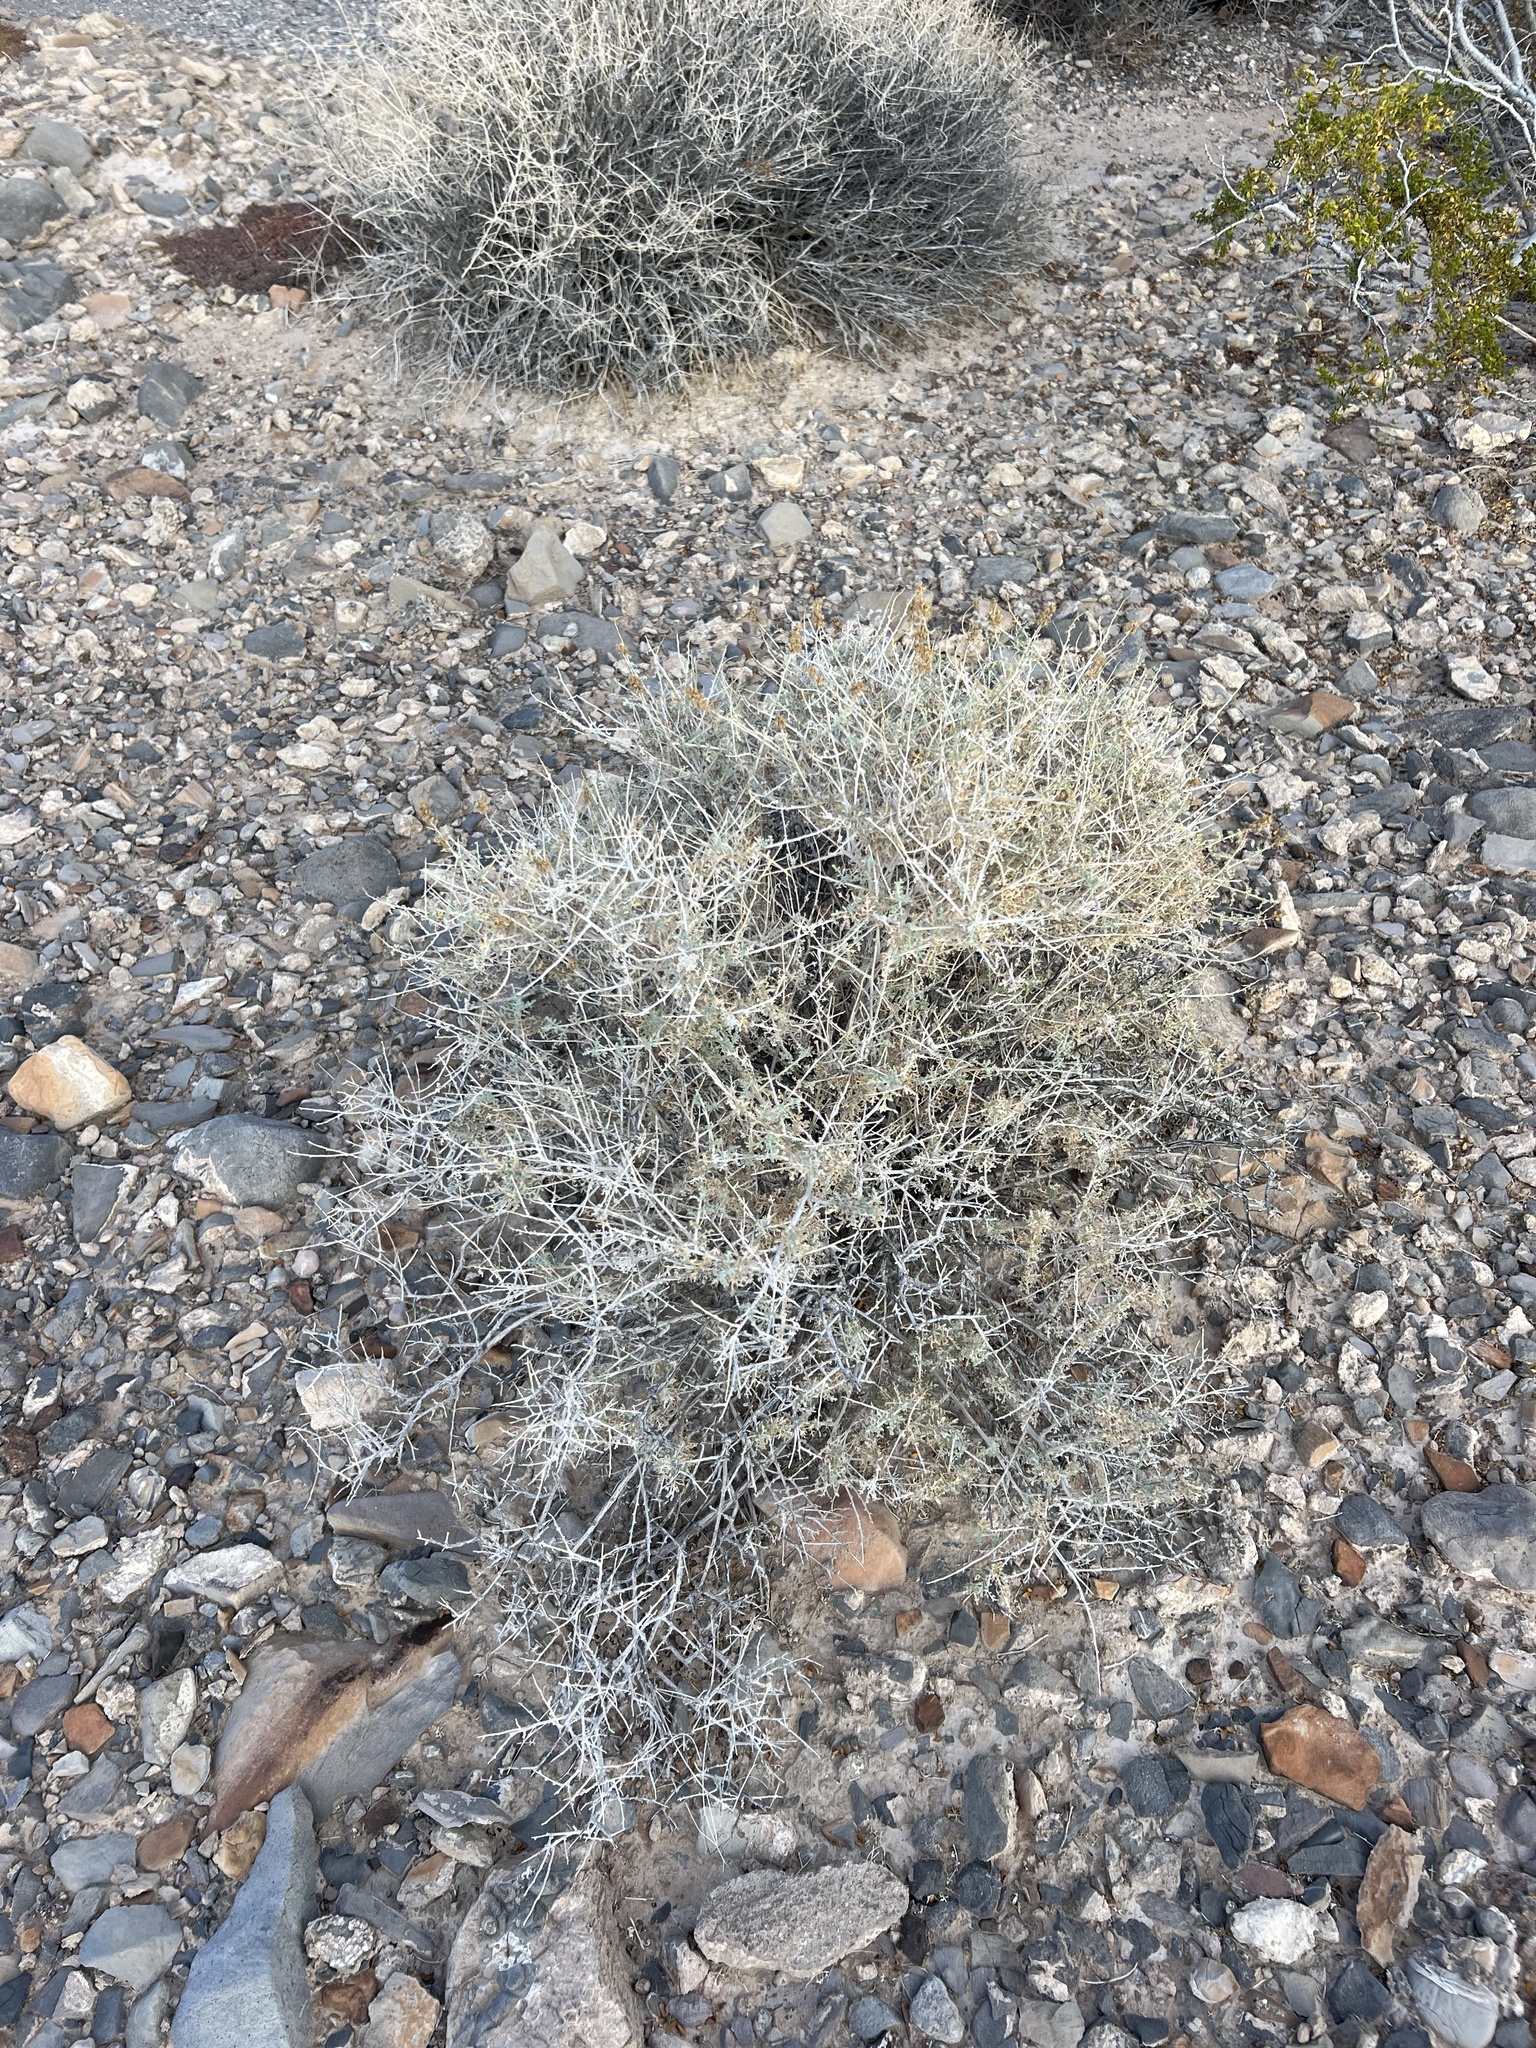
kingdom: Plantae
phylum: Tracheophyta
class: Magnoliopsida
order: Asterales
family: Asteraceae
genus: Ambrosia
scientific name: Ambrosia dumosa
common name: Bur-sage
